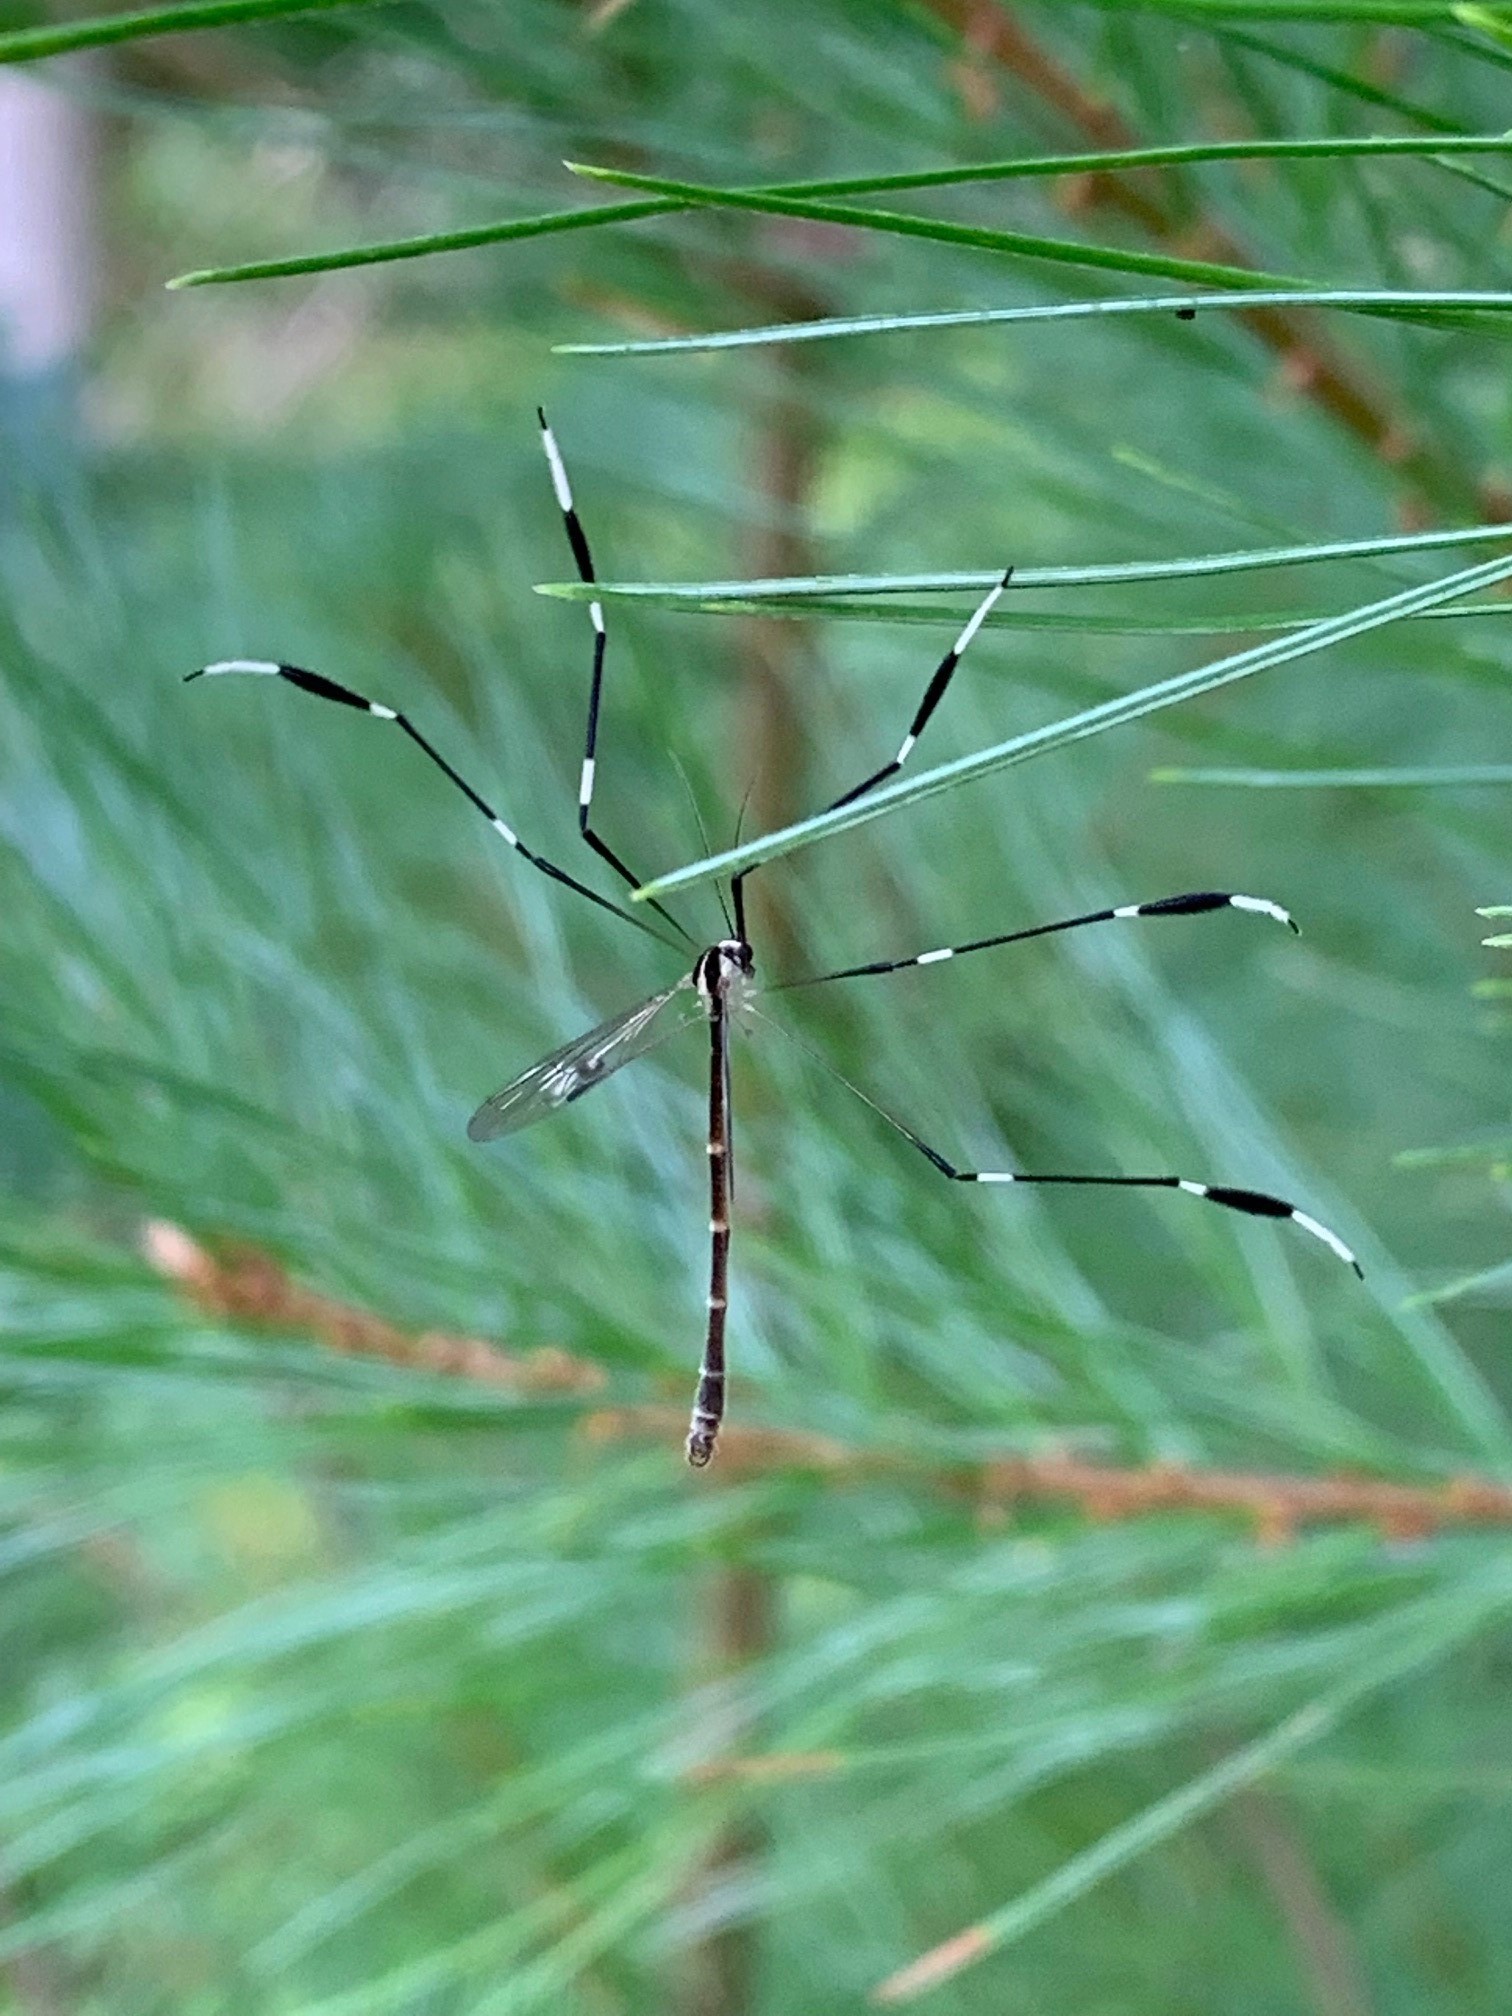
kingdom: Animalia
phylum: Arthropoda
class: Insecta
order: Diptera
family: Ptychopteridae
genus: Bittacomorpha
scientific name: Bittacomorpha clavipes
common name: Eastern phantom crane fly
